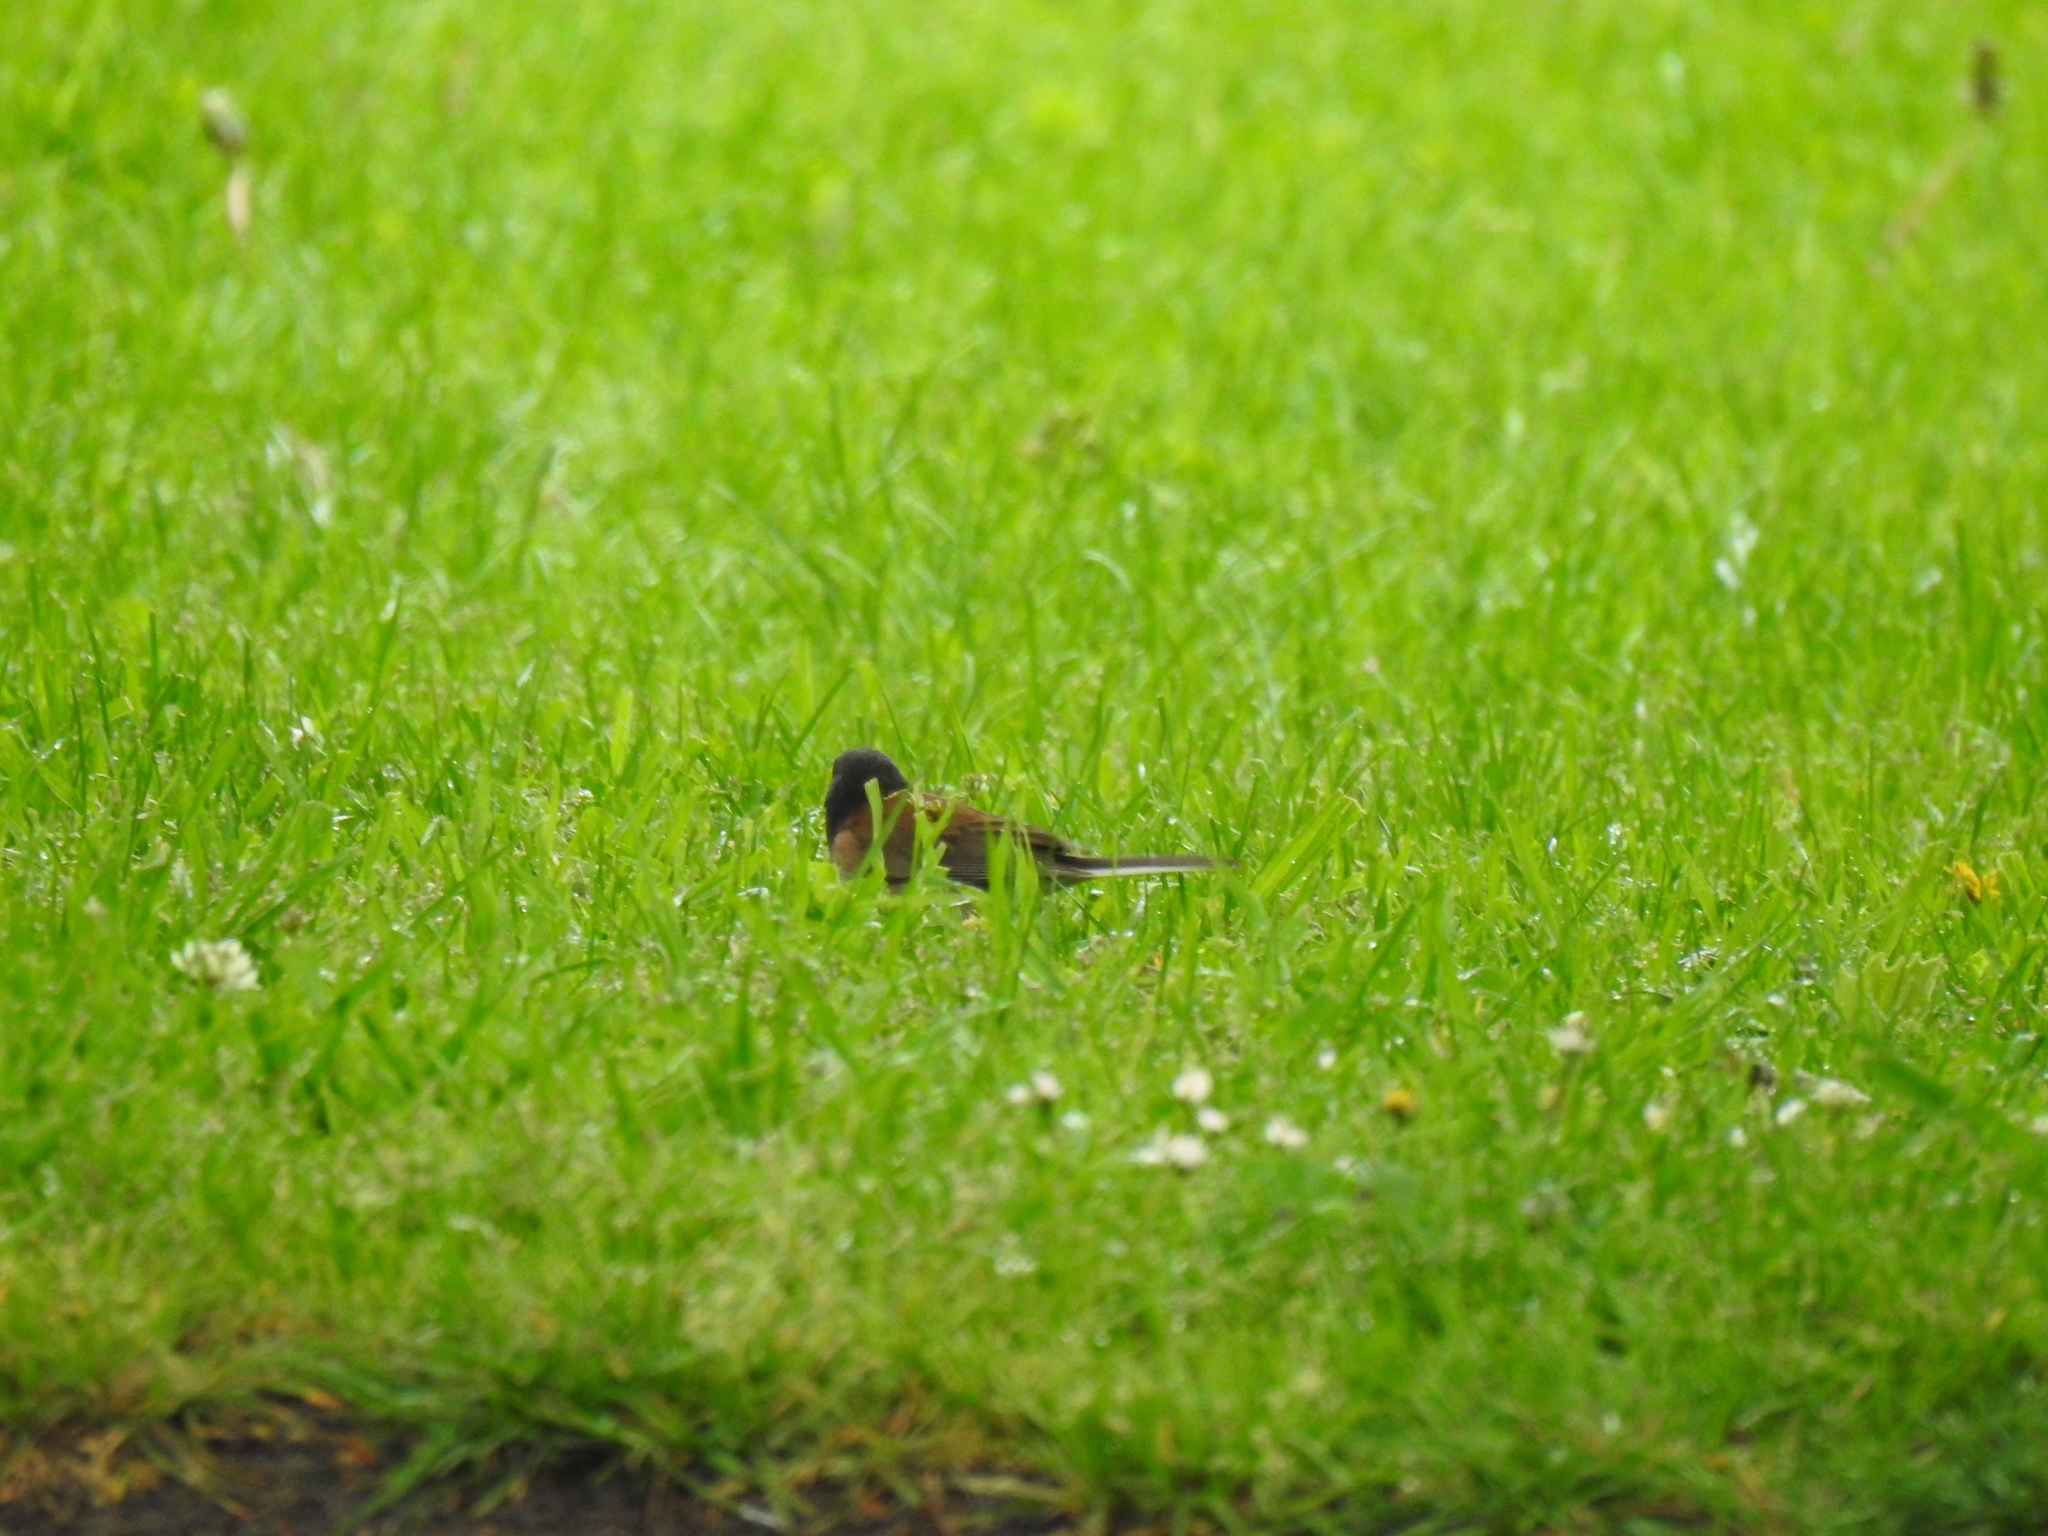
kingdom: Animalia
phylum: Chordata
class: Aves
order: Passeriformes
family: Passerellidae
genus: Junco
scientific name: Junco hyemalis
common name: Dark-eyed junco
